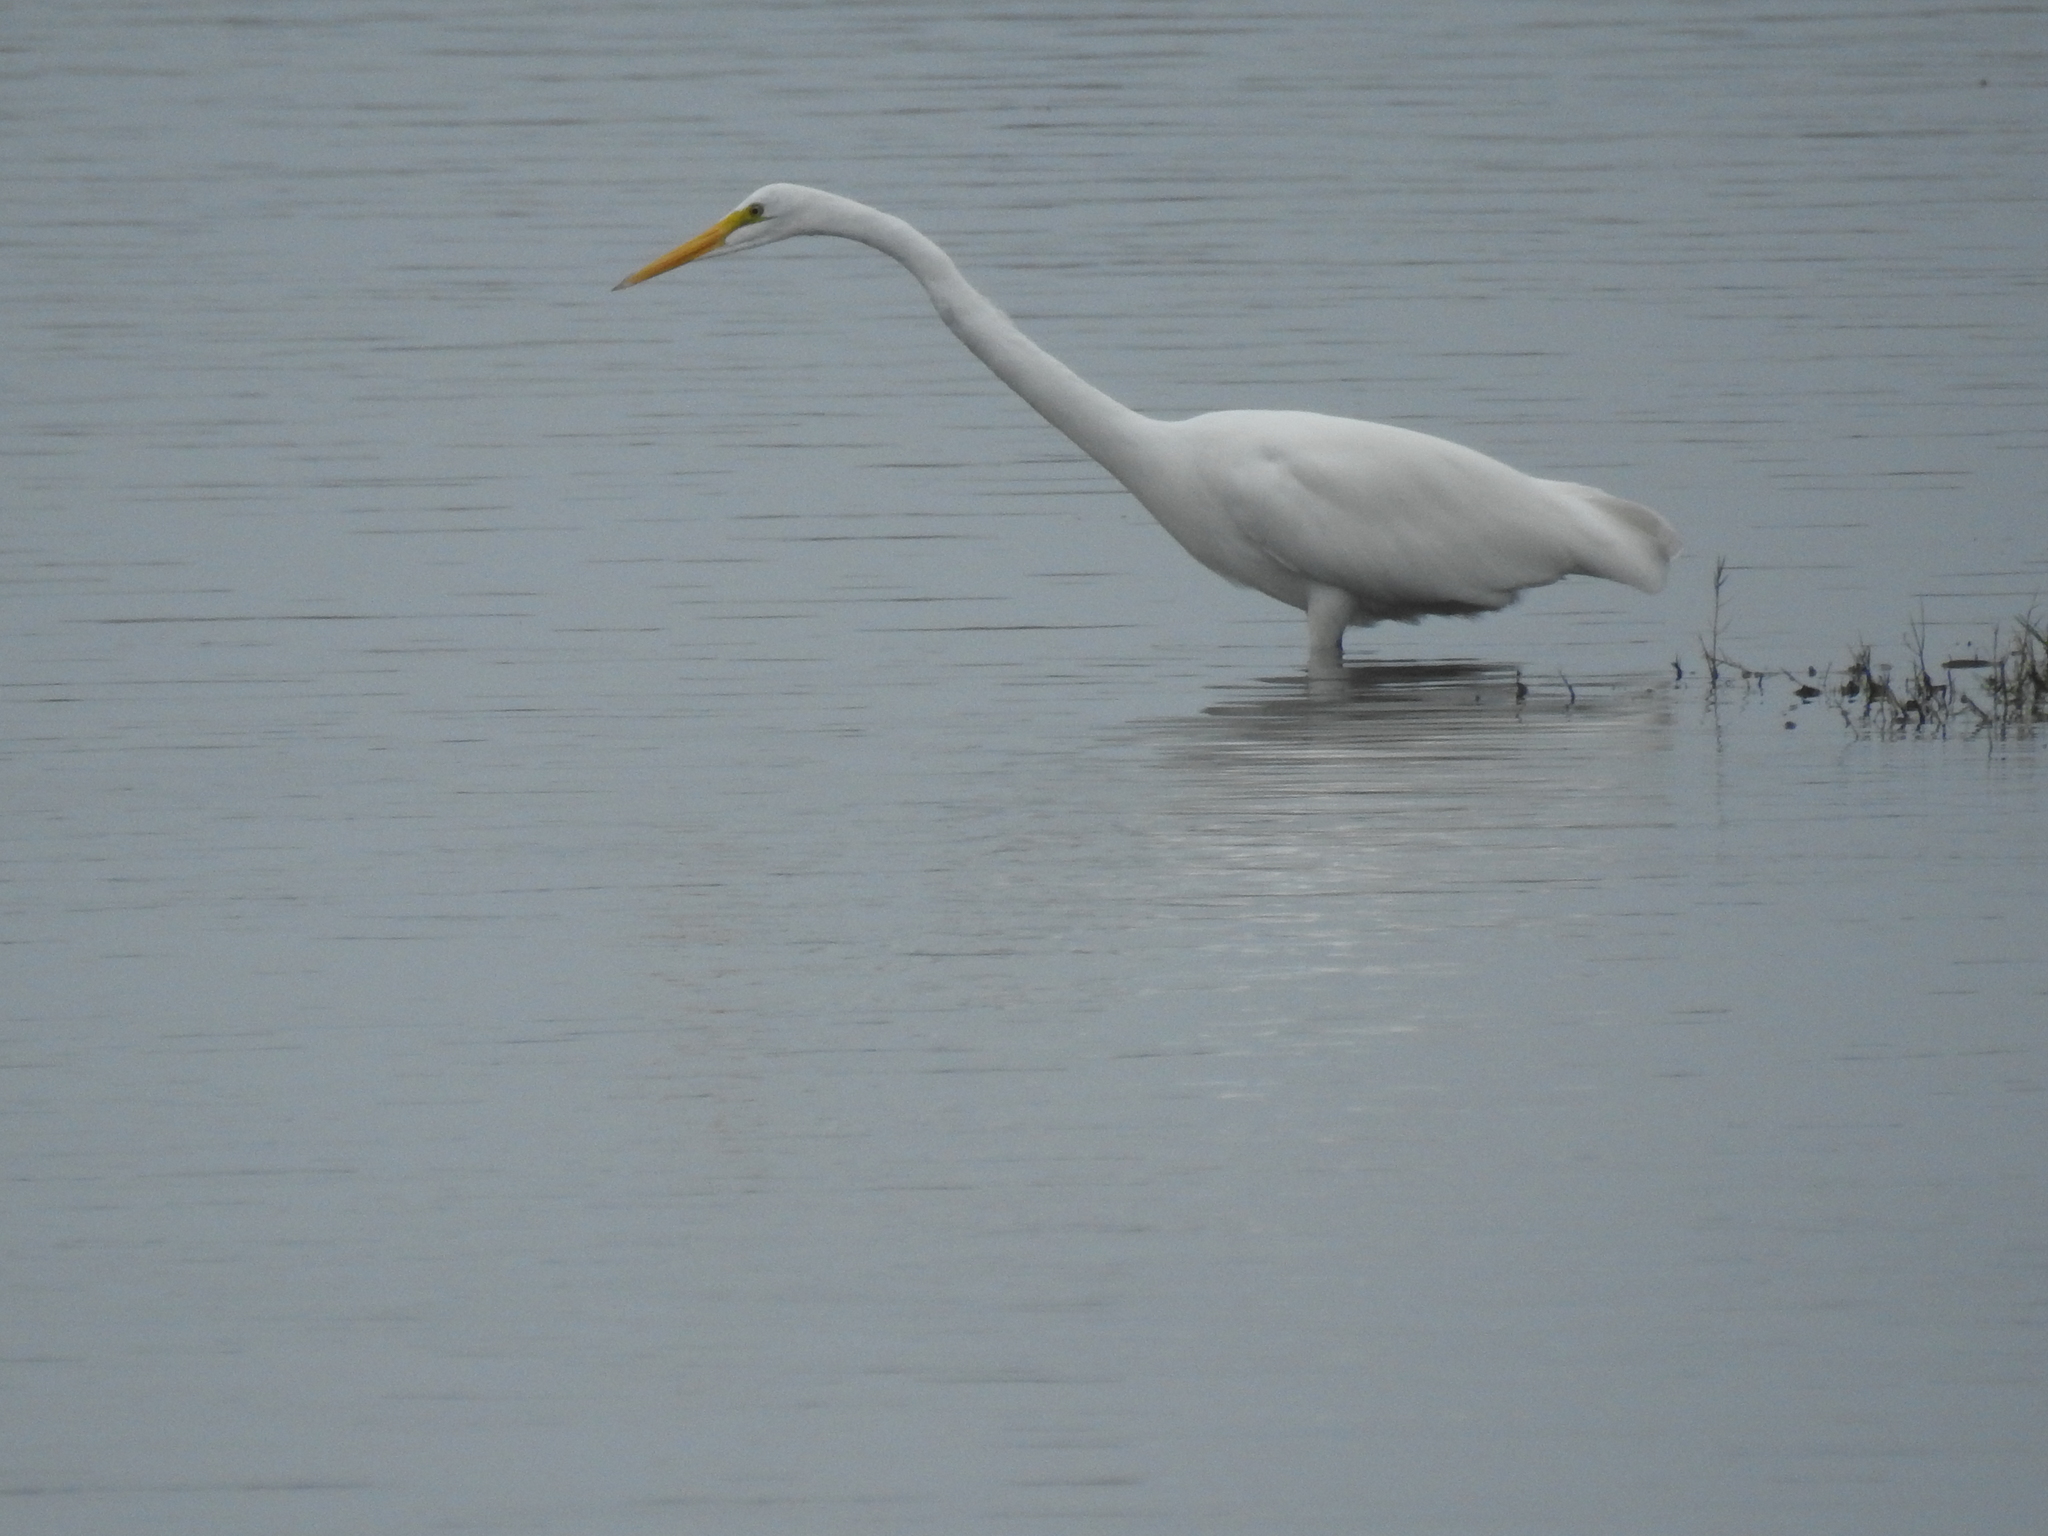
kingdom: Animalia
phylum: Chordata
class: Aves
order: Pelecaniformes
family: Ardeidae
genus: Ardea
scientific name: Ardea alba
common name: Great egret
